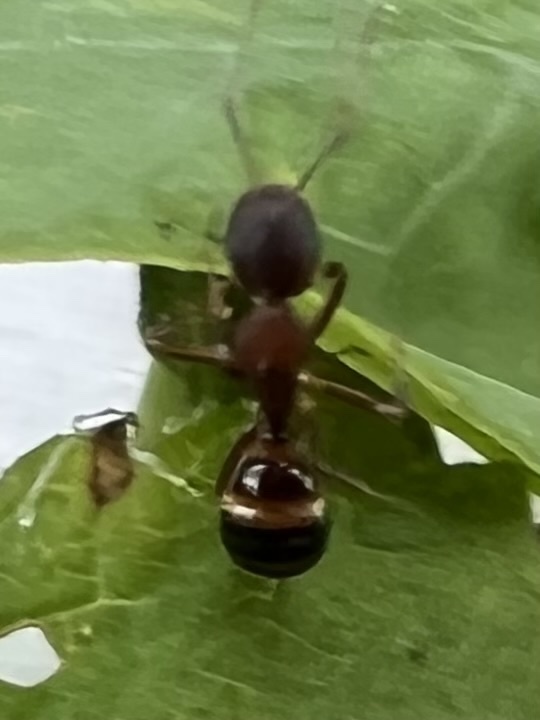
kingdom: Animalia
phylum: Arthropoda
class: Insecta
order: Hymenoptera
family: Formicidae
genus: Camponotus
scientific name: Camponotus subbarbatus
